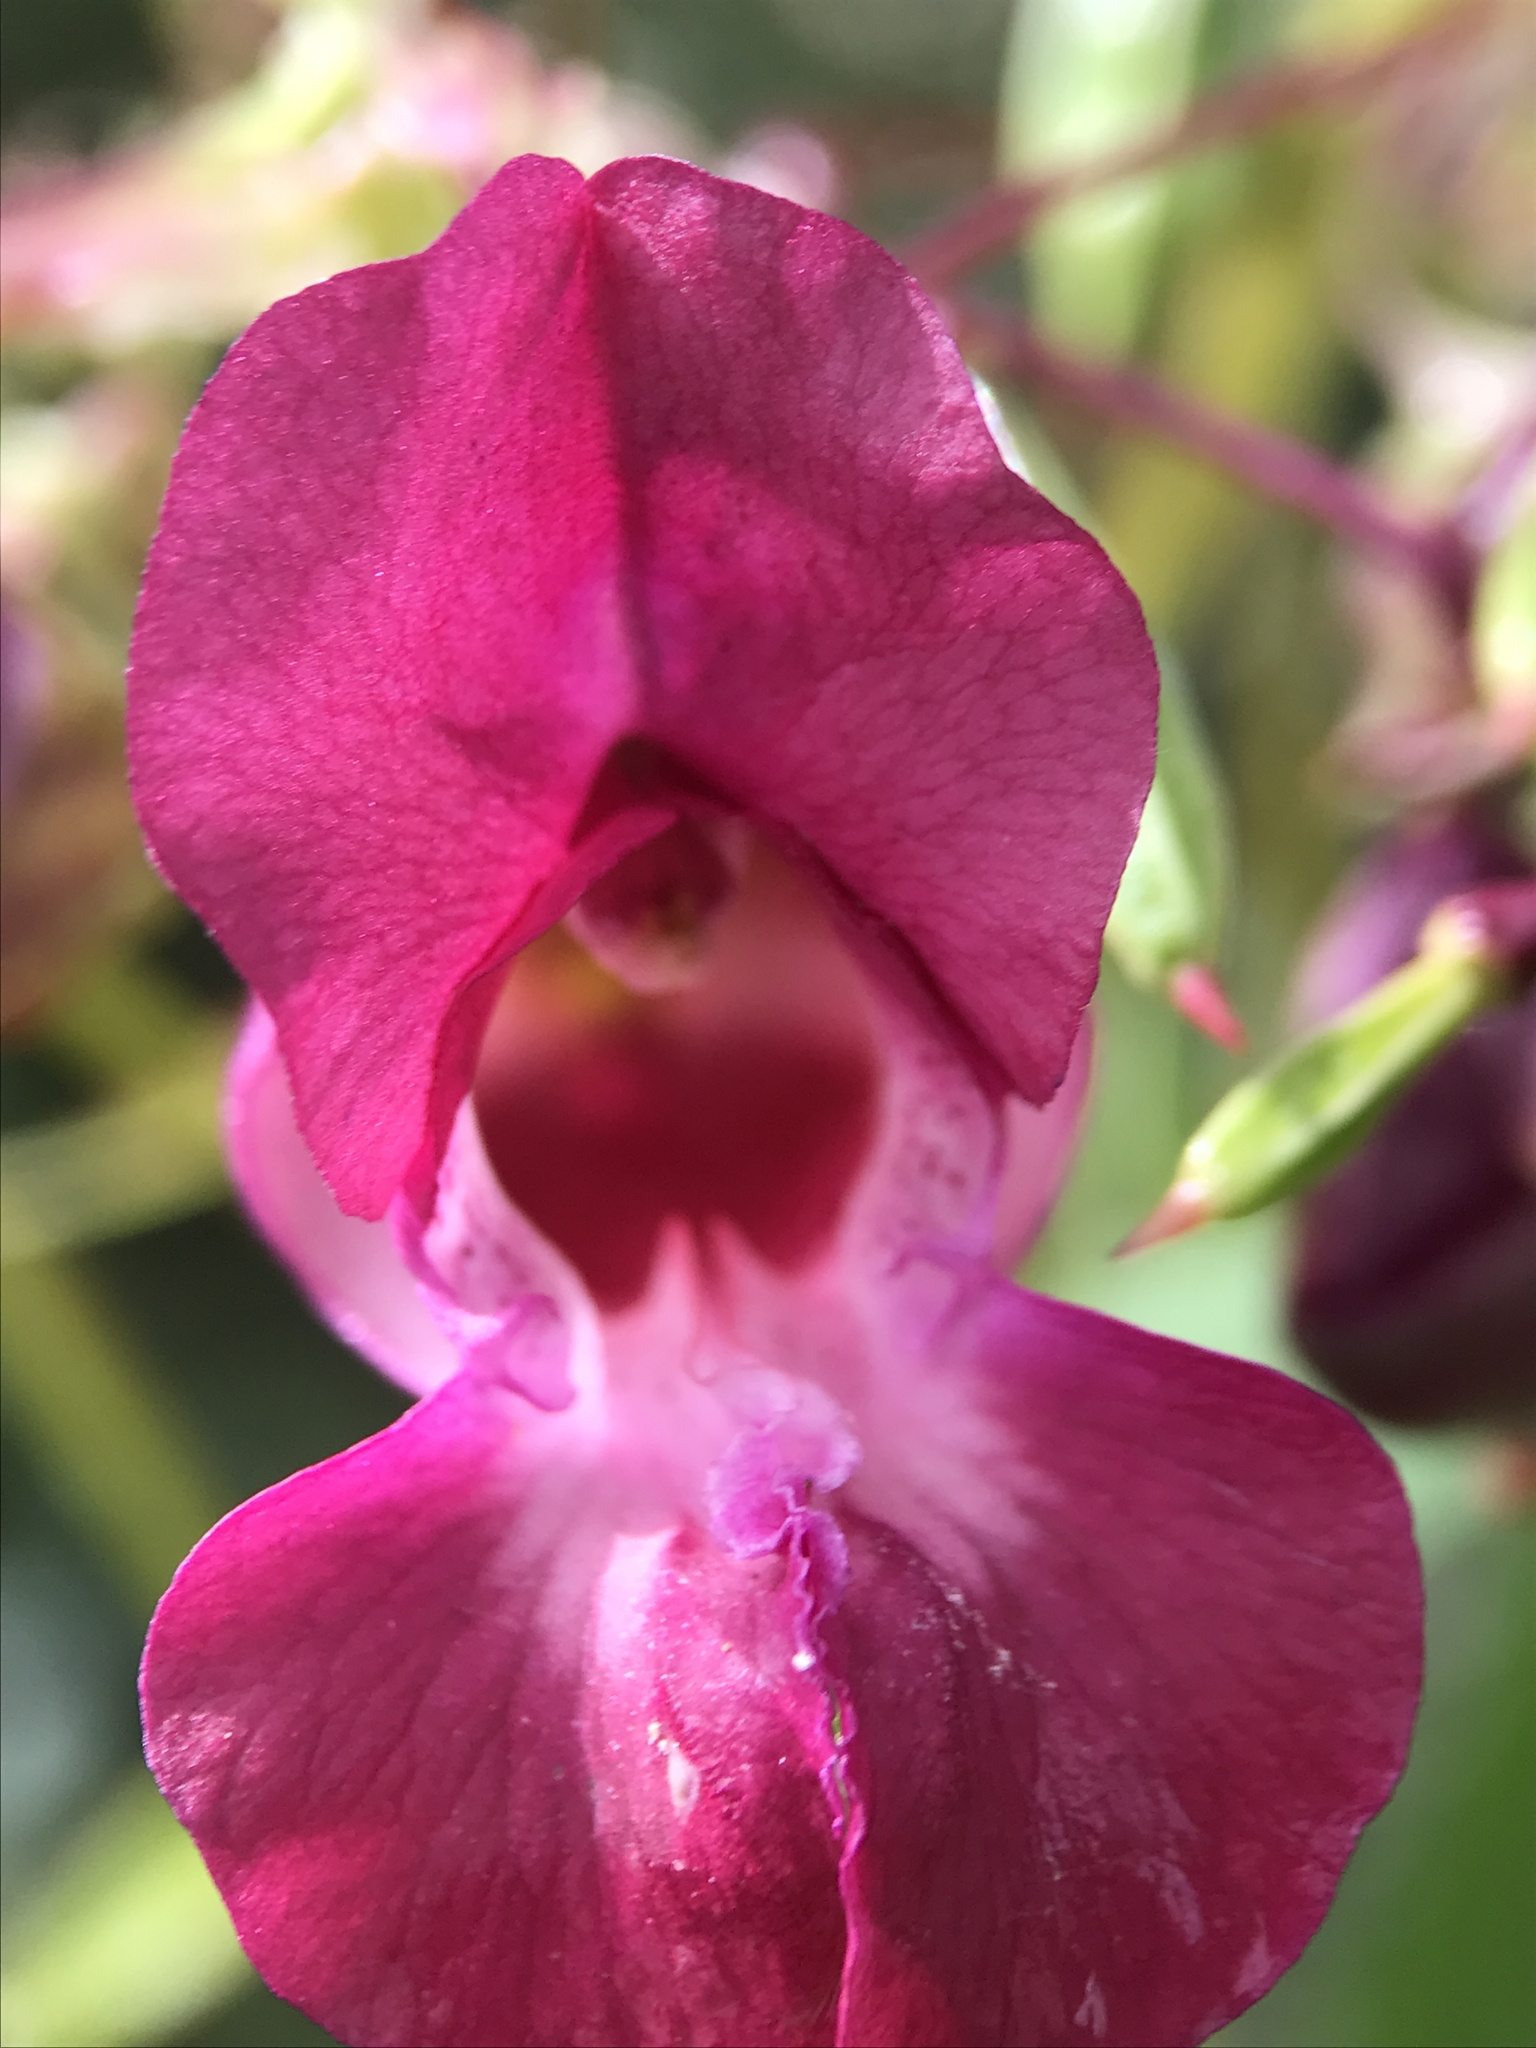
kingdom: Plantae
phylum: Tracheophyta
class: Magnoliopsida
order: Ericales
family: Balsaminaceae
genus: Impatiens
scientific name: Impatiens glandulifera
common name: Himalayan balsam
